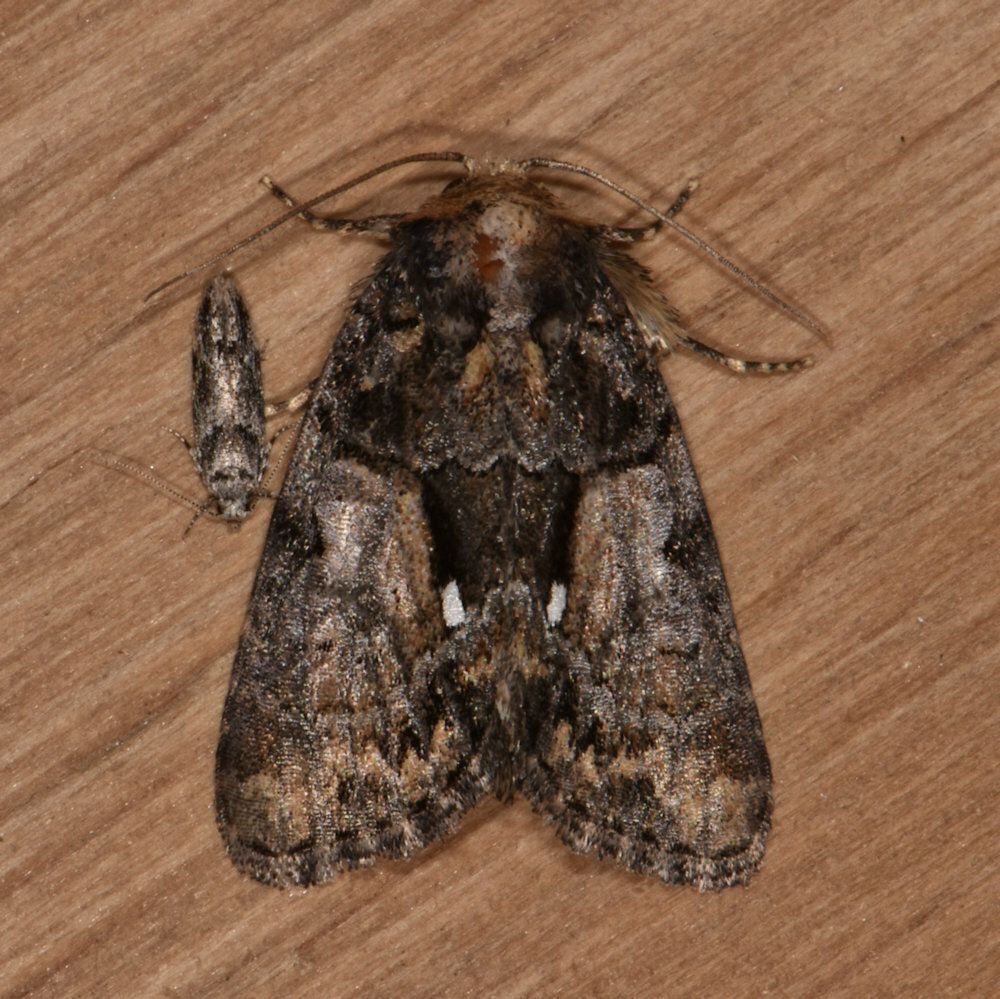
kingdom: Animalia
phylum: Arthropoda
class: Insecta
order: Lepidoptera
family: Noctuidae
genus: Chytonix
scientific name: Chytonix palliatricula
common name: Cloaked marvel
